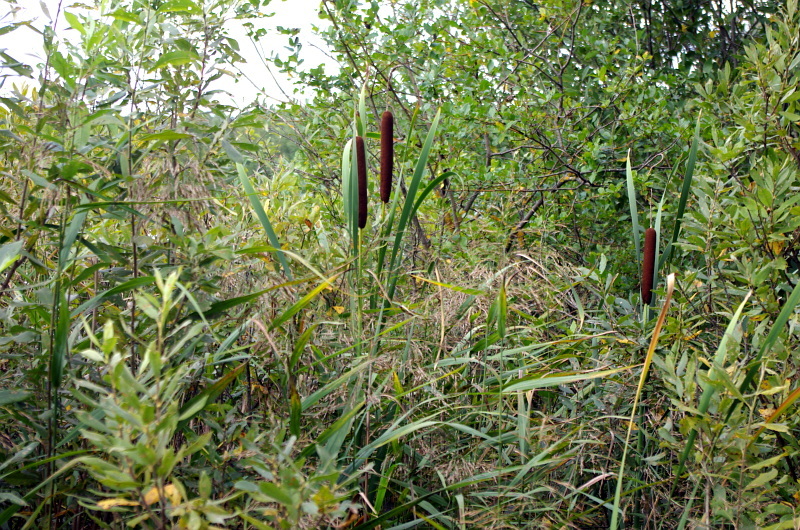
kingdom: Plantae
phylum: Tracheophyta
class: Liliopsida
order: Poales
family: Typhaceae
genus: Typha
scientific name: Typha latifolia
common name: Broadleaf cattail
